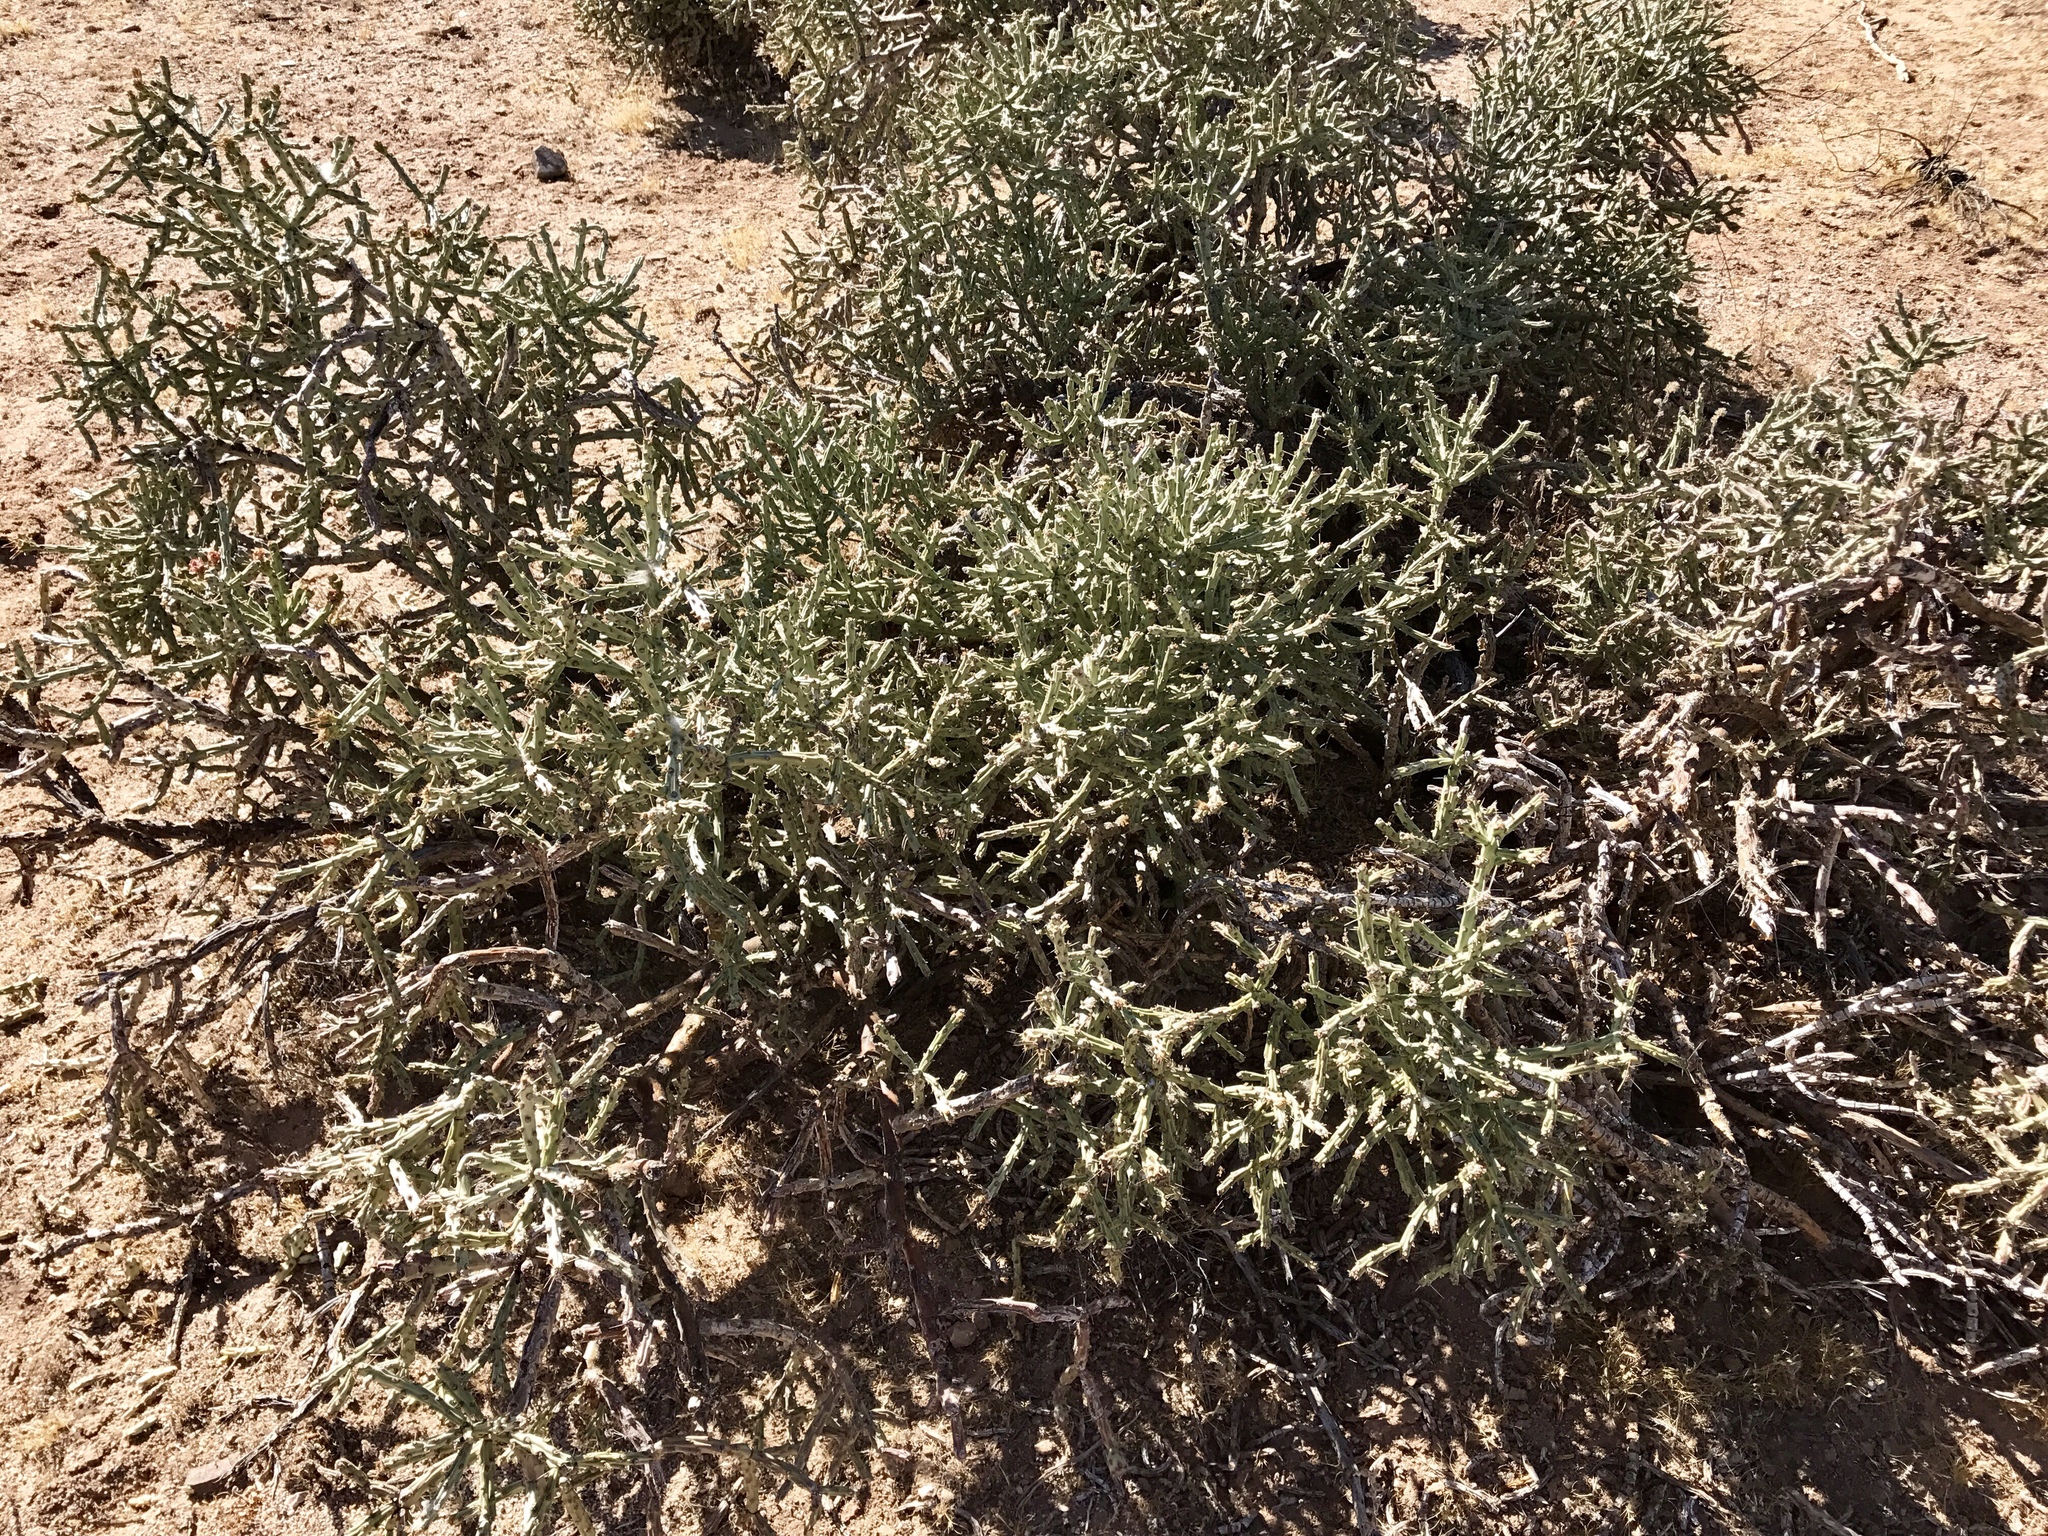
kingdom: Plantae
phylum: Tracheophyta
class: Magnoliopsida
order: Caryophyllales
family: Cactaceae
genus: Cylindropuntia
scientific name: Cylindropuntia arbuscula
